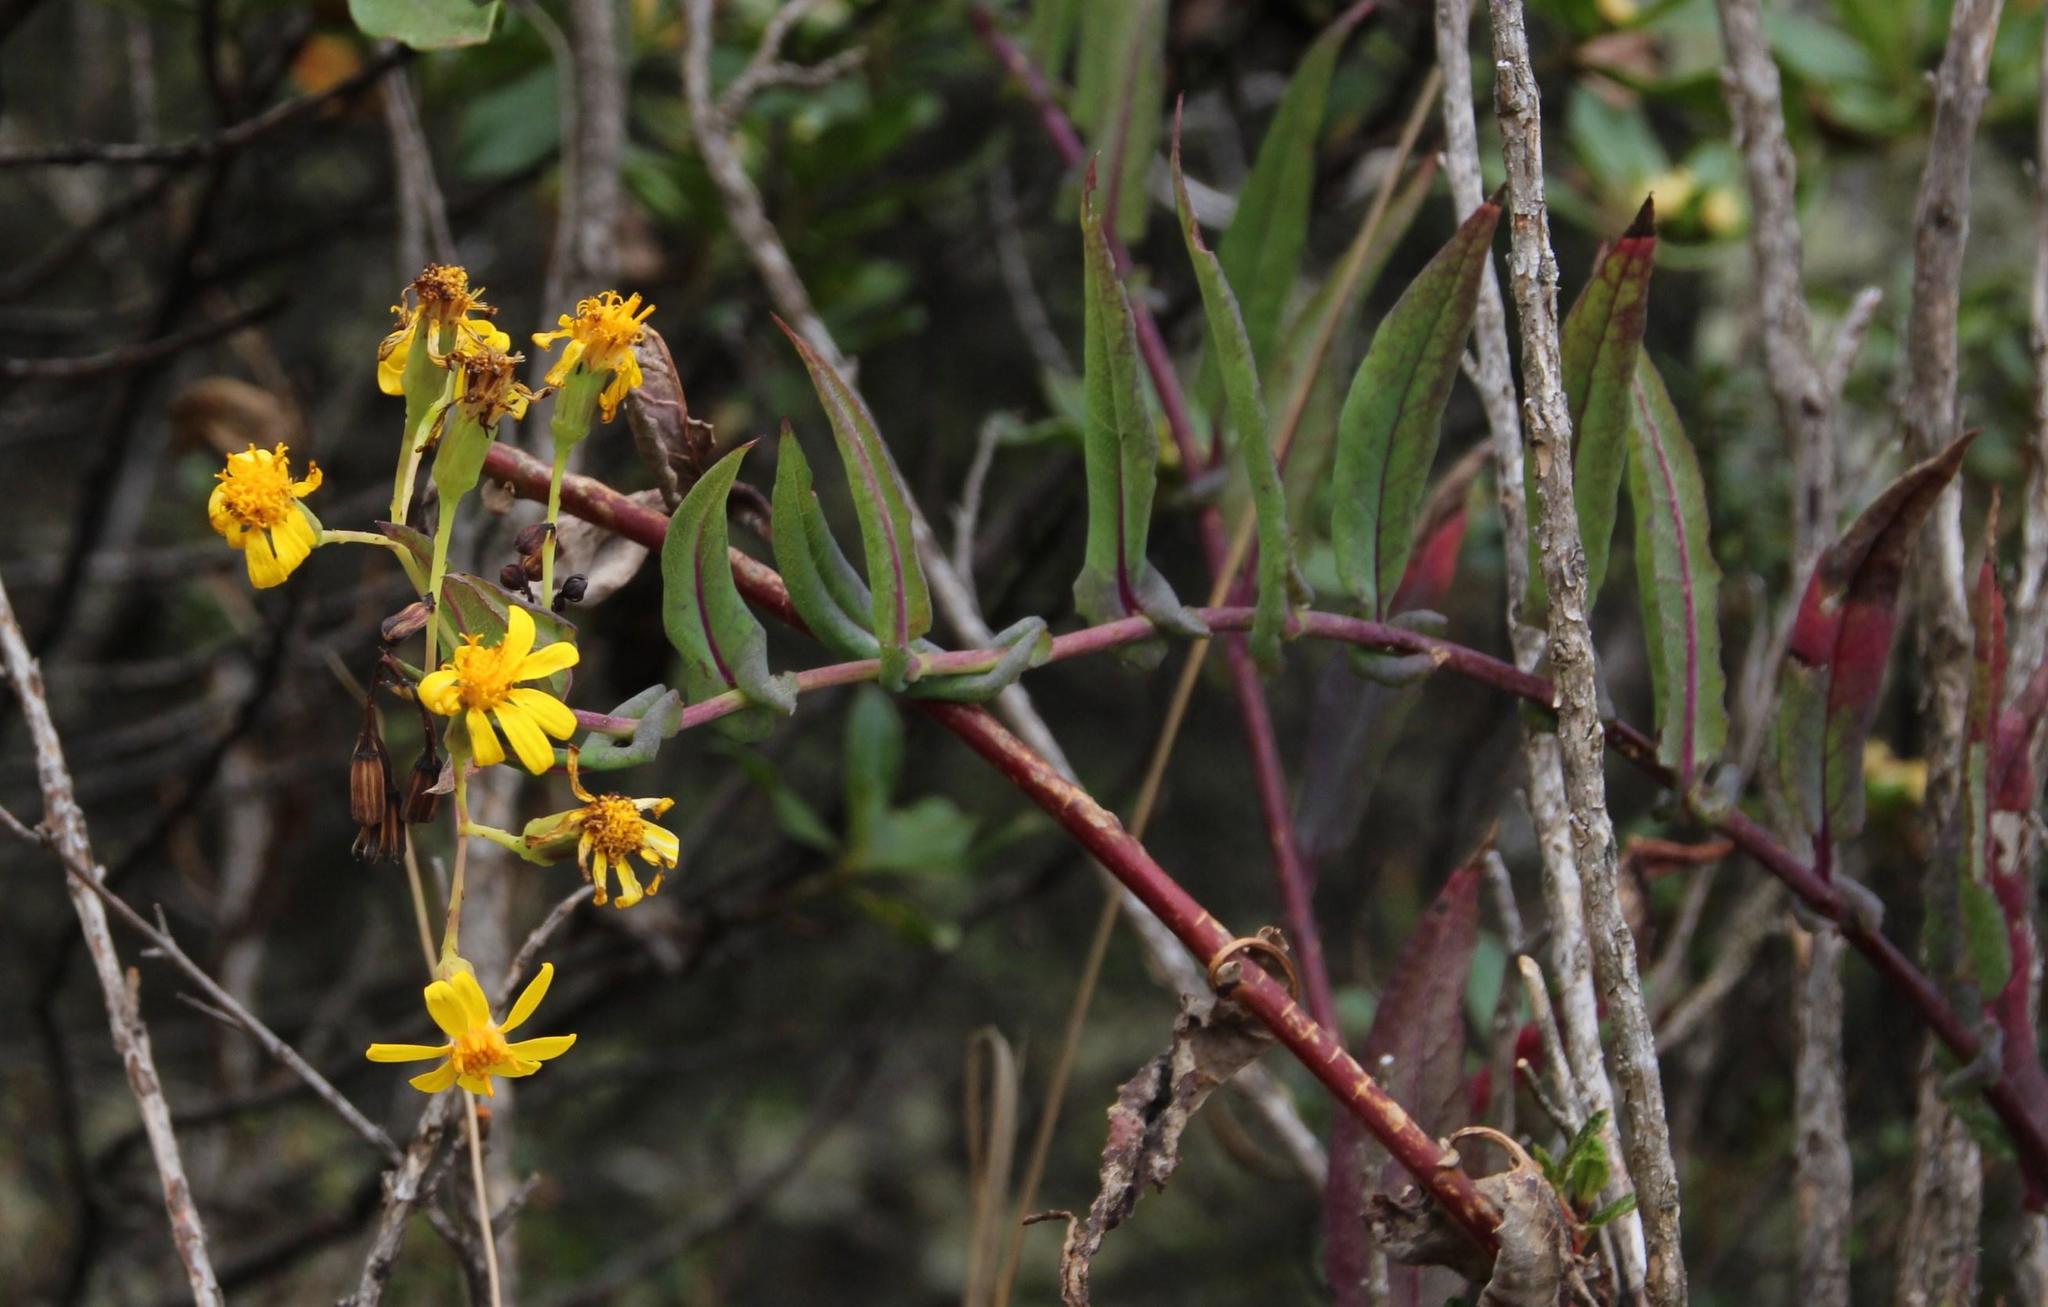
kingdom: Plantae
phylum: Tracheophyta
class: Magnoliopsida
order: Asterales
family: Asteraceae
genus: Senecio
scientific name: Senecio panticallensis
